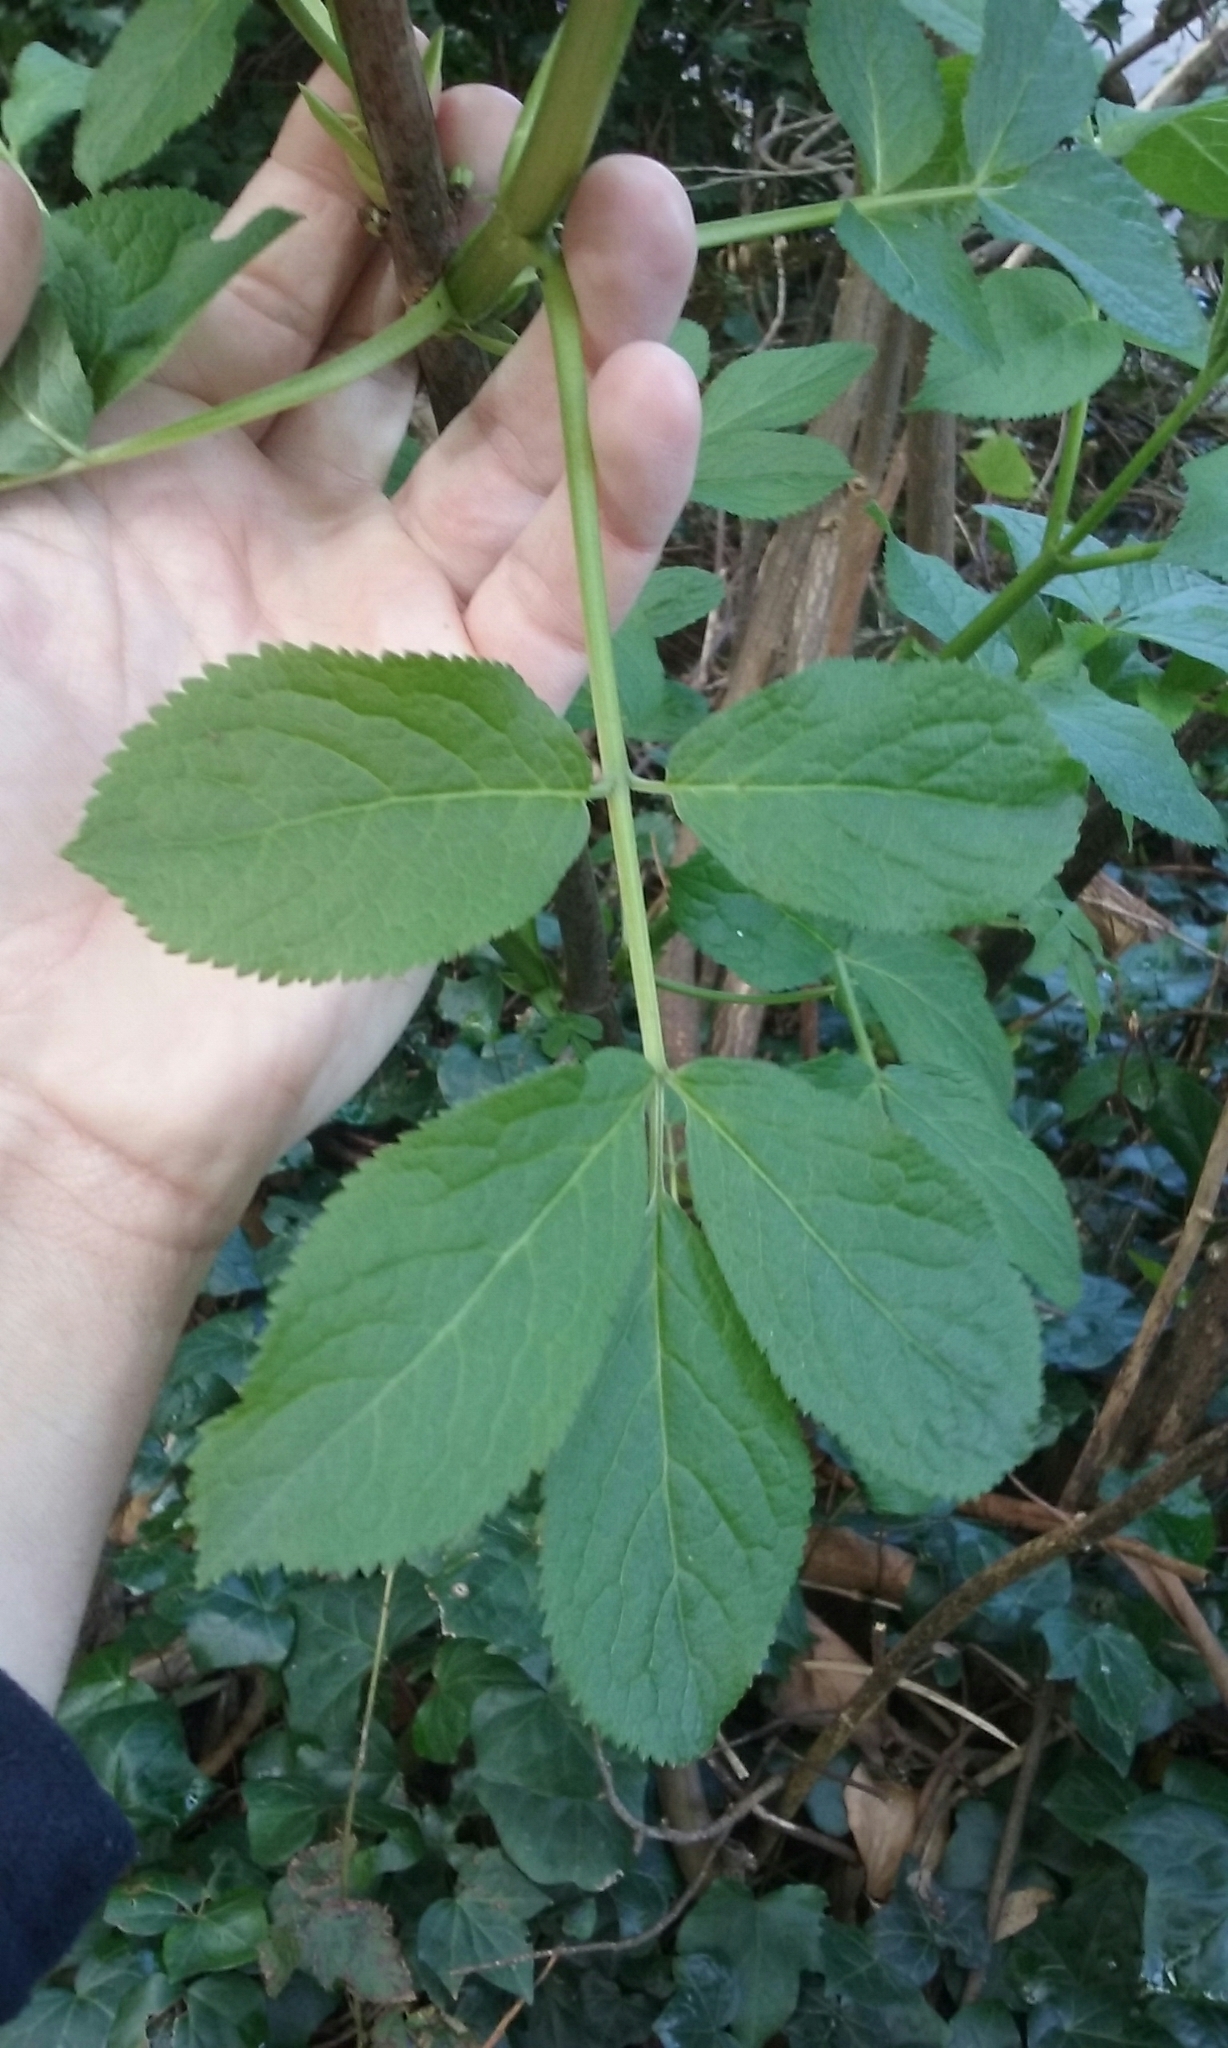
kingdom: Plantae
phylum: Tracheophyta
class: Magnoliopsida
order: Dipsacales
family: Viburnaceae
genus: Sambucus
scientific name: Sambucus racemosa
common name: Red-berried elder
